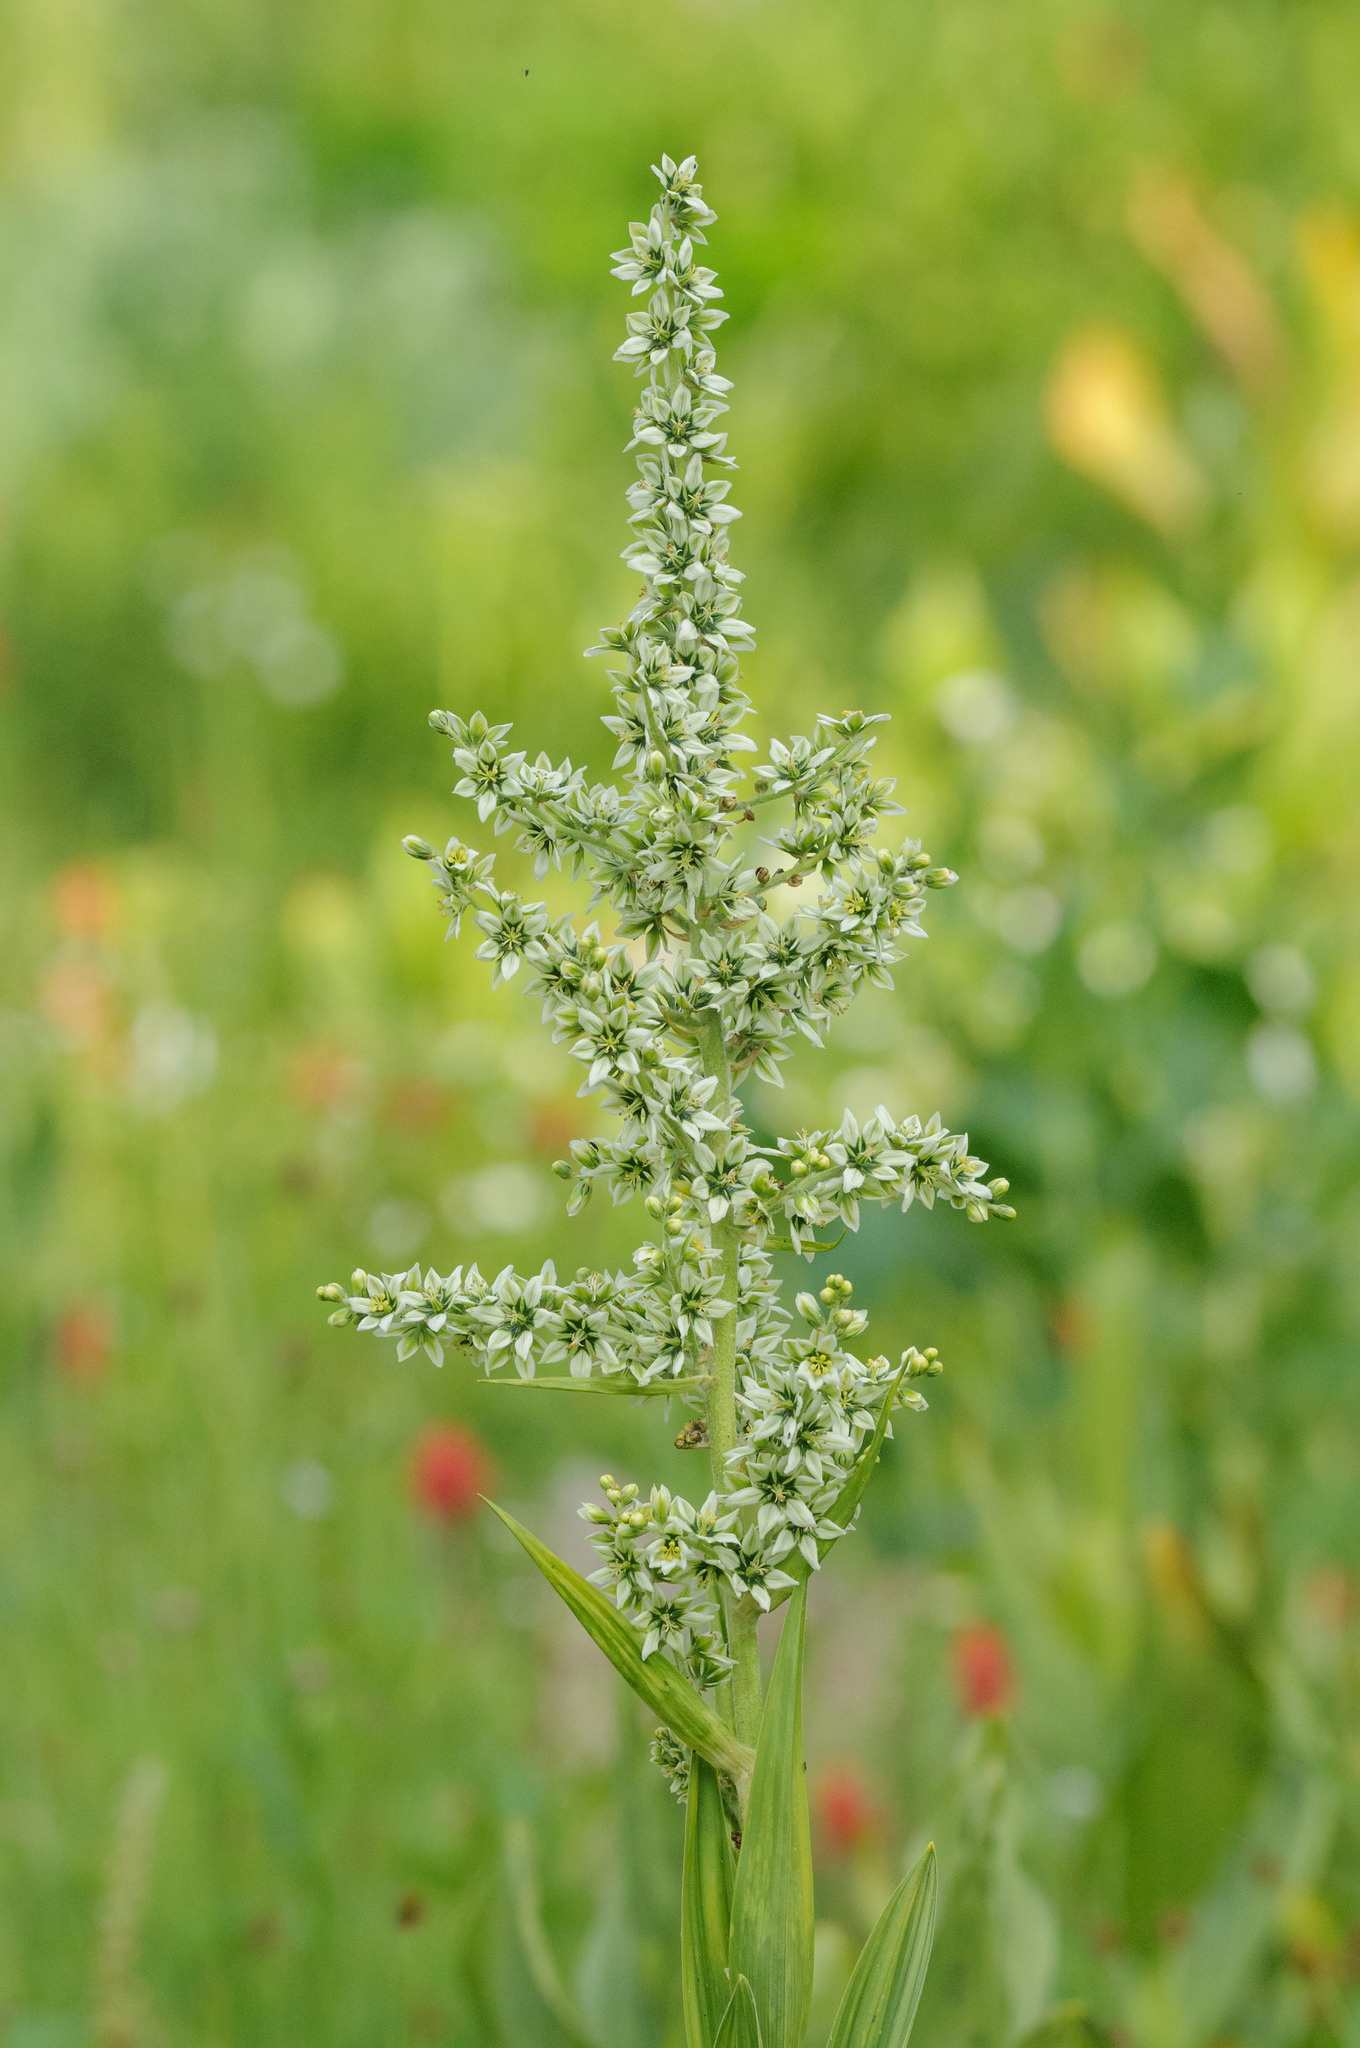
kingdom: Plantae
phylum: Tracheophyta
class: Liliopsida
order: Liliales
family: Melanthiaceae
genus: Veratrum
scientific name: Veratrum californicum
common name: California veratrum
